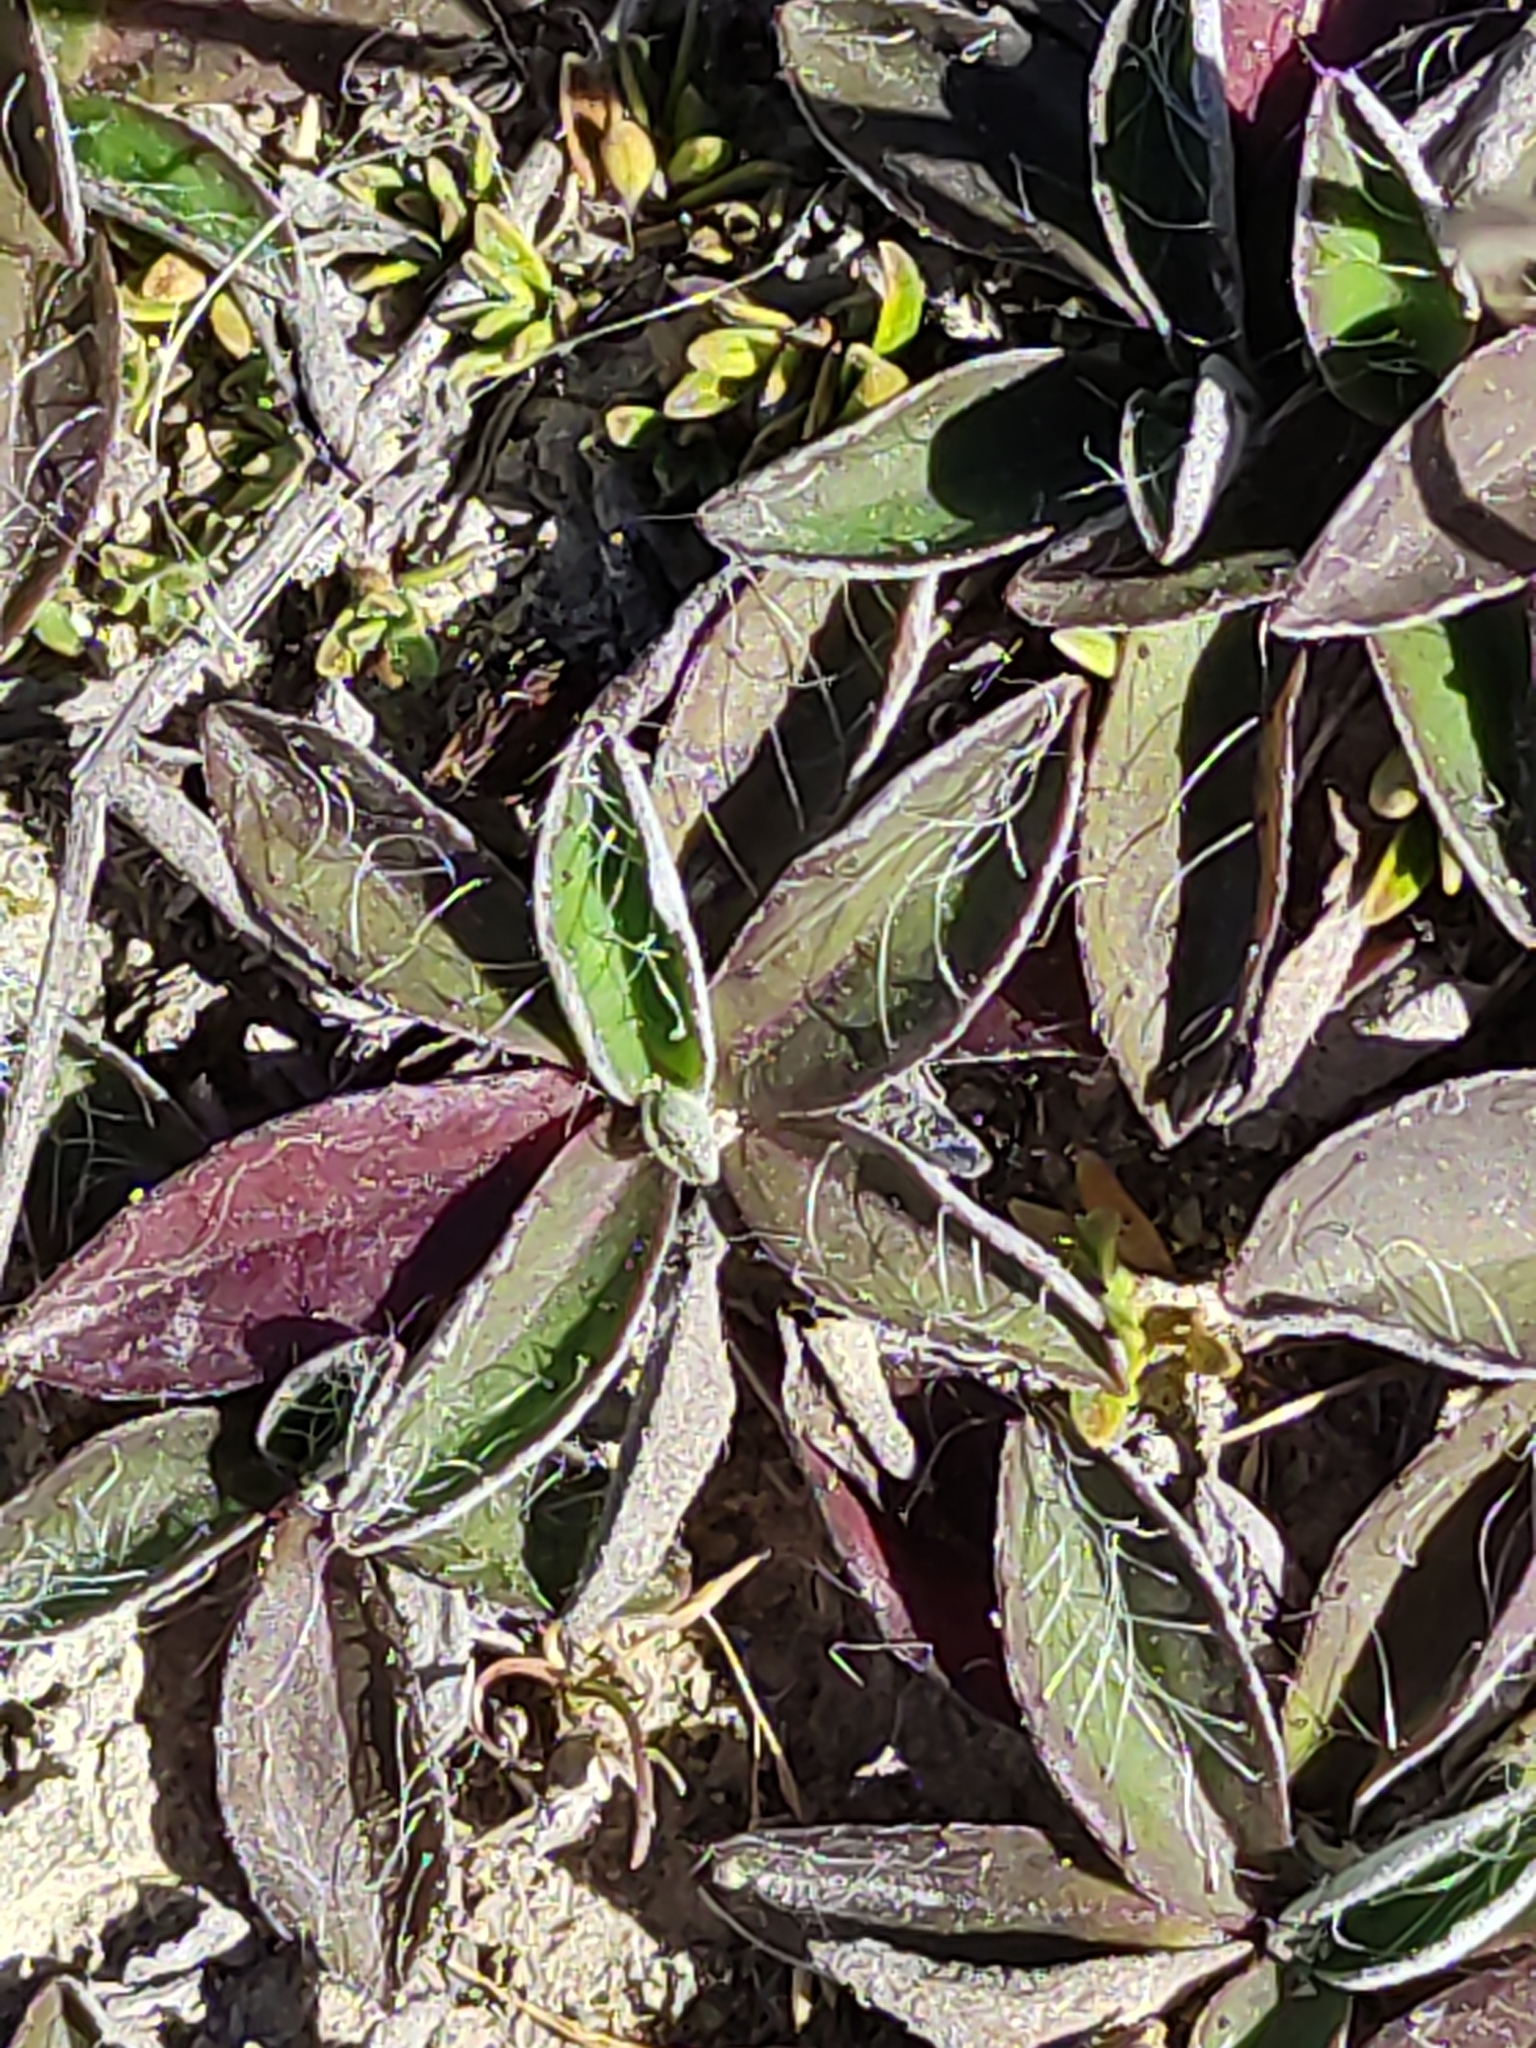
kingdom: Plantae
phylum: Tracheophyta
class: Magnoliopsida
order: Asterales
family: Asteraceae
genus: Pilosella
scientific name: Pilosella officinarum
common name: Mouse-ear hawkweed
